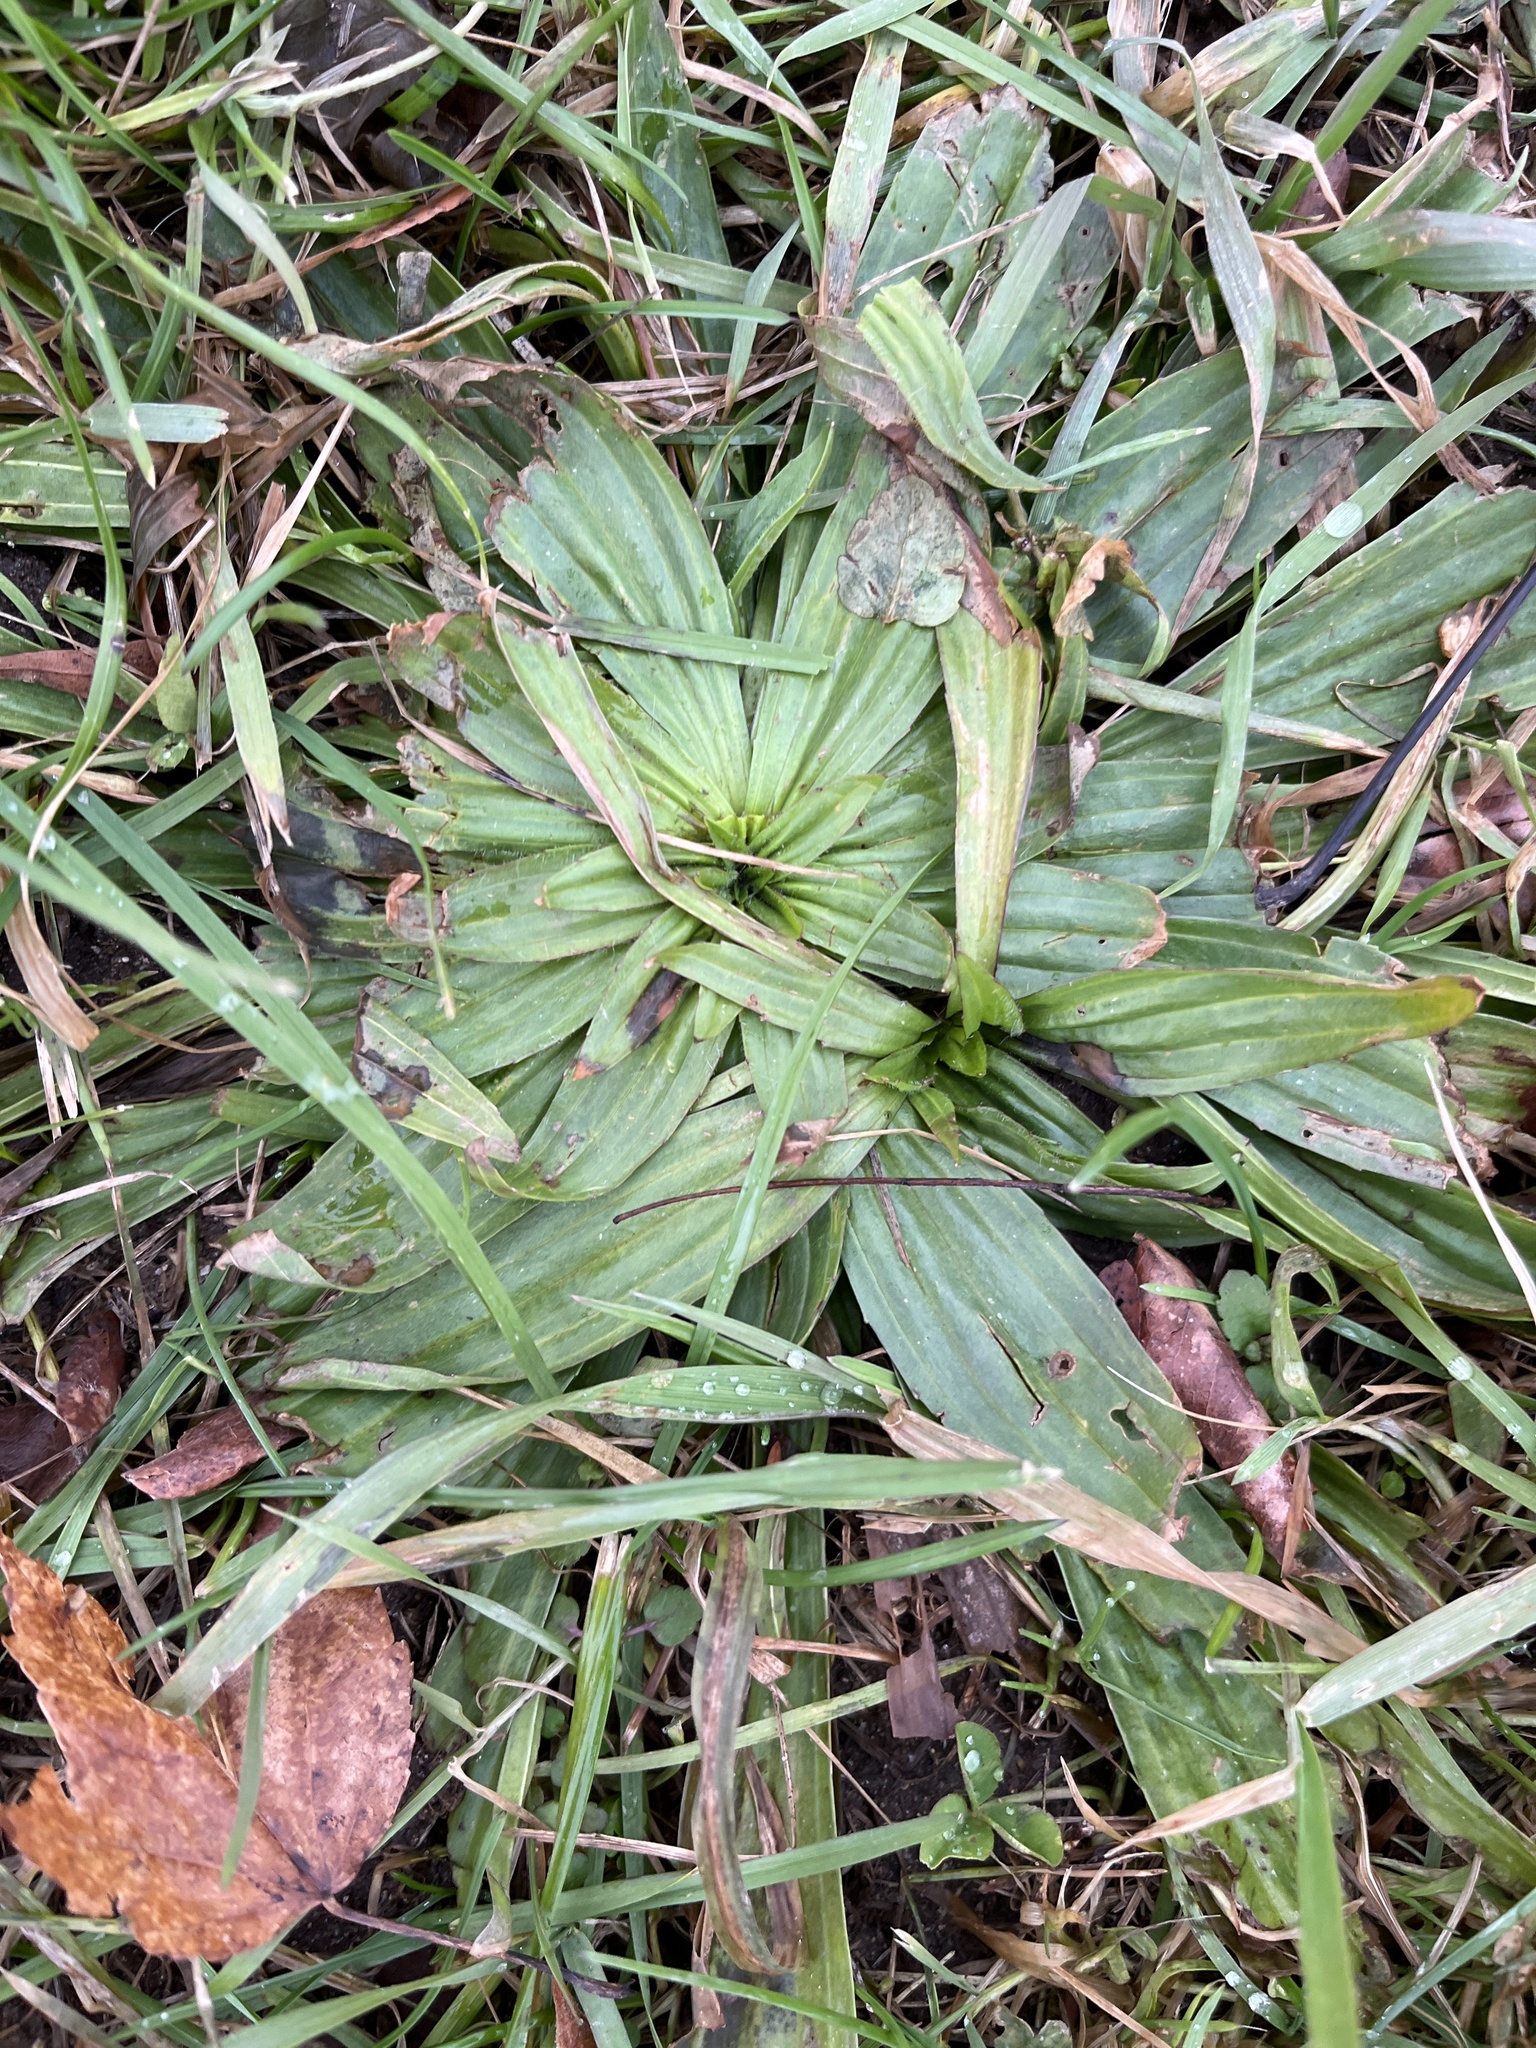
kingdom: Plantae
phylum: Tracheophyta
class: Magnoliopsida
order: Lamiales
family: Plantaginaceae
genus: Plantago
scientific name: Plantago lanceolata
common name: Ribwort plantain
